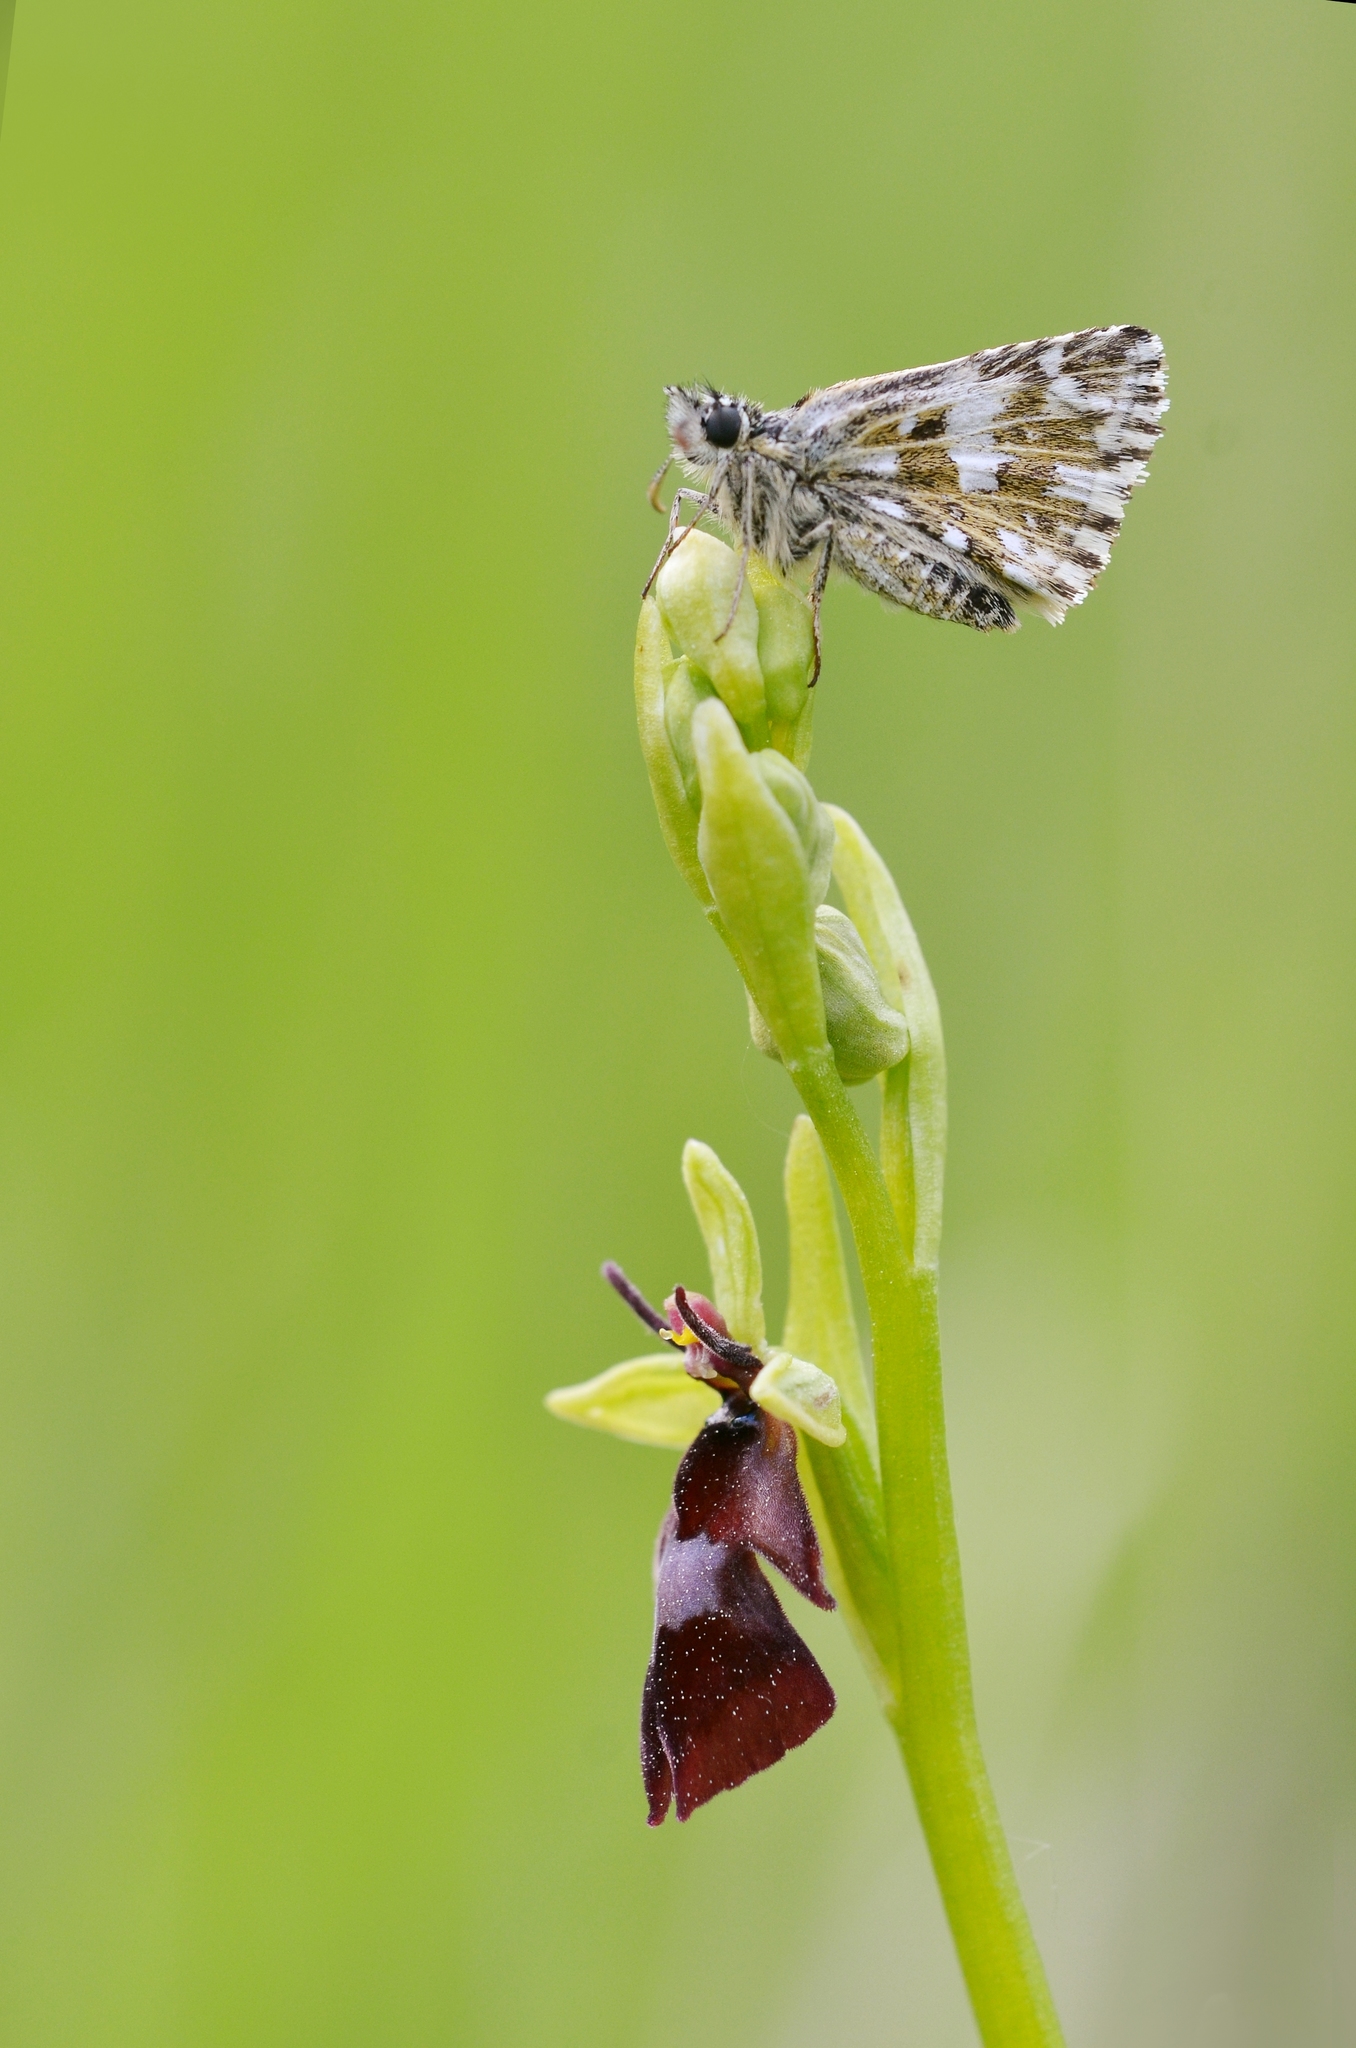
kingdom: Animalia
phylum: Arthropoda
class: Insecta
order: Lepidoptera
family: Hesperiidae
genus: Pyrgus
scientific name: Pyrgus malvae
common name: Grizzled skipper
